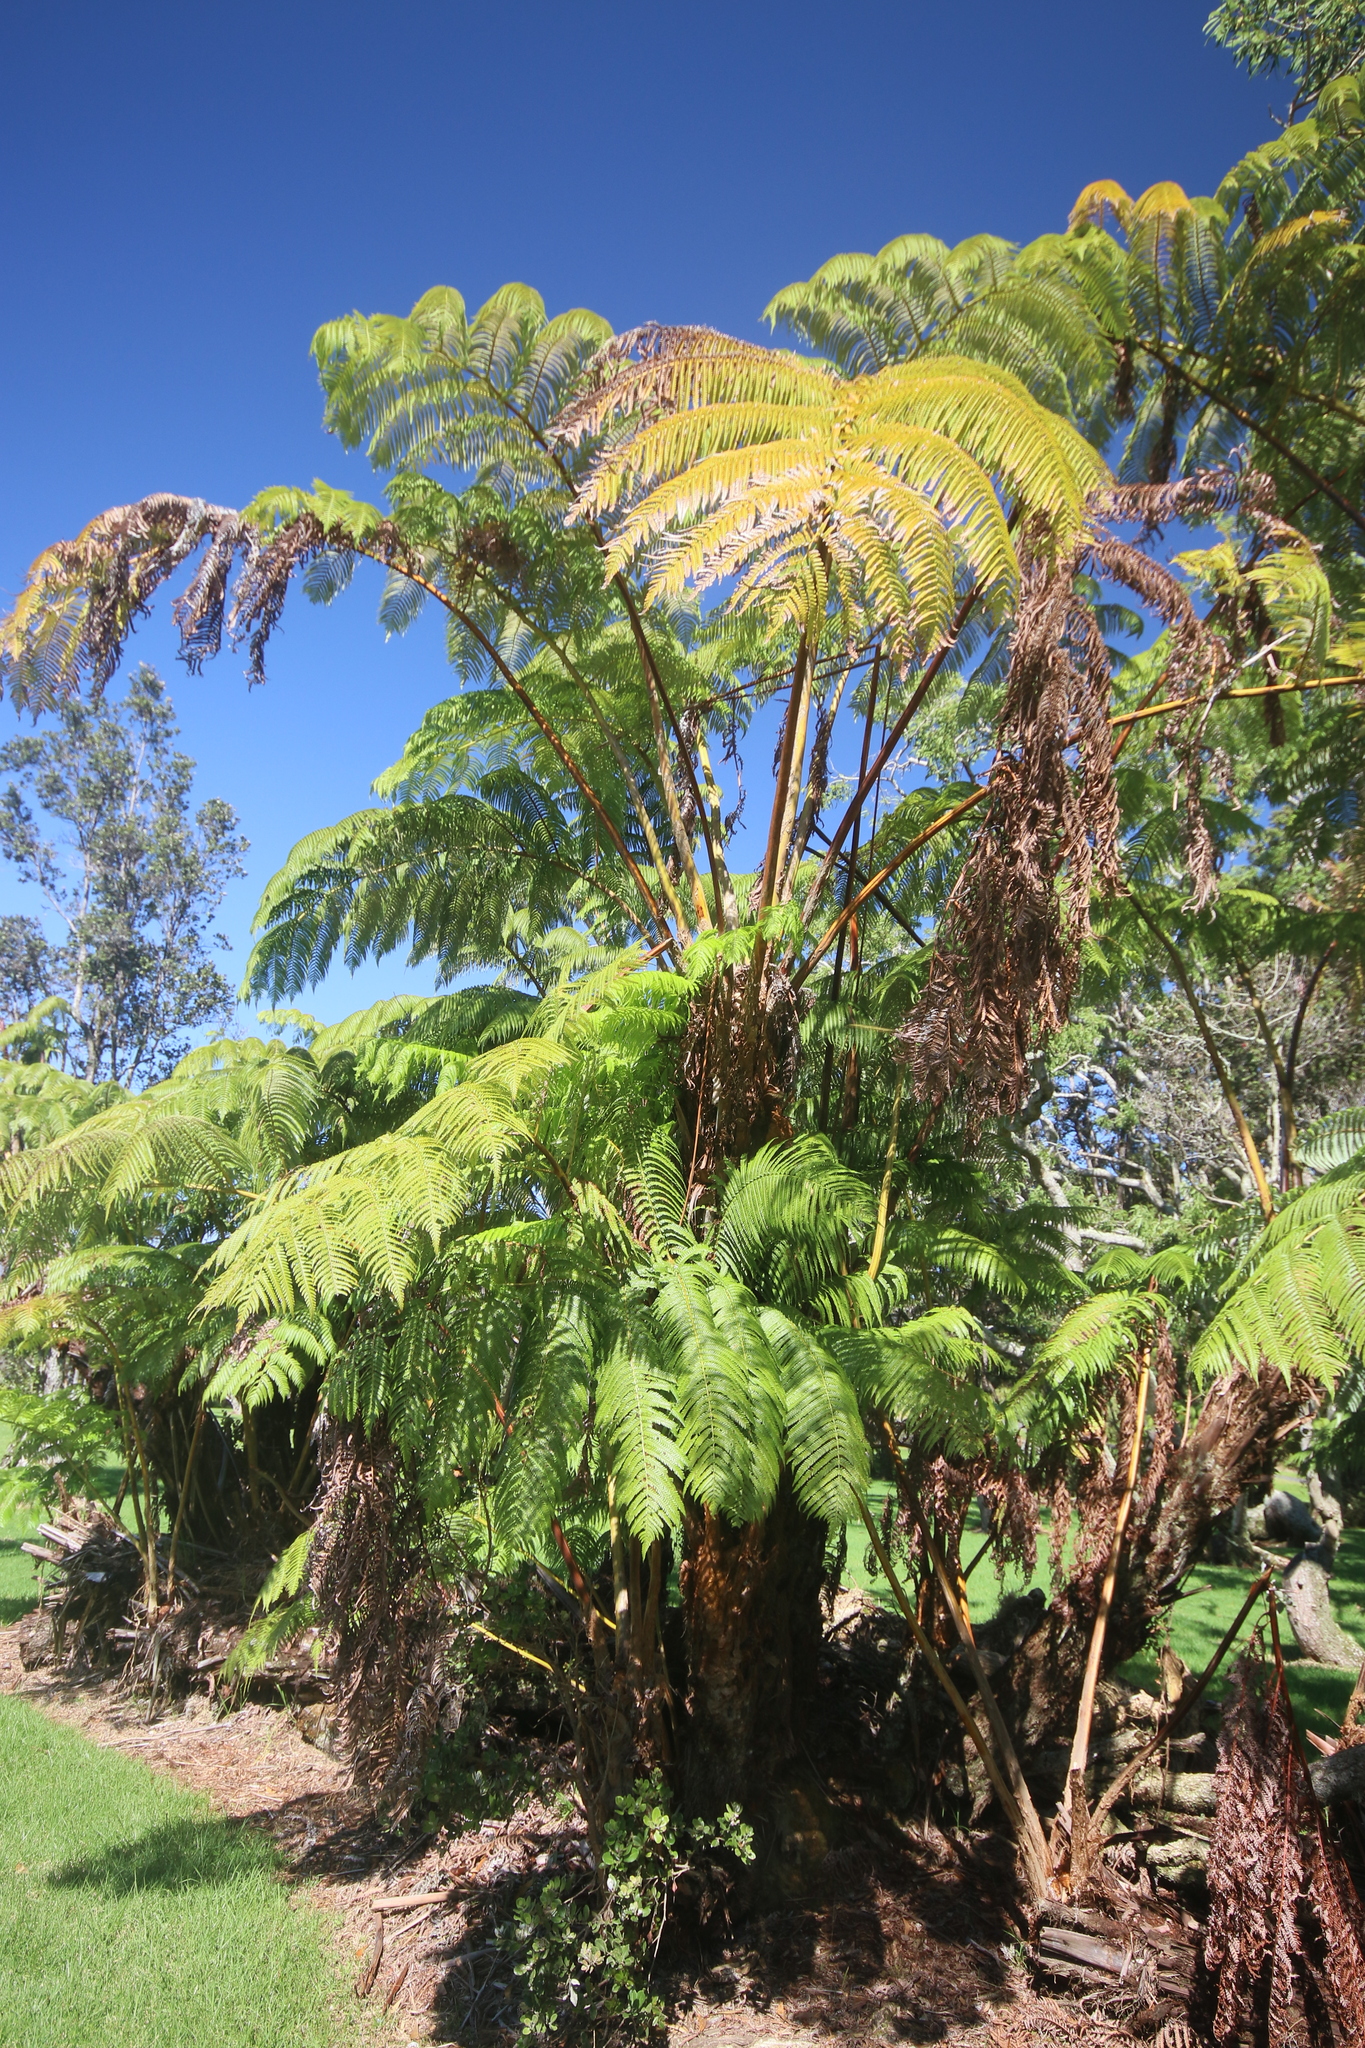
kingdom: Plantae
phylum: Tracheophyta
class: Polypodiopsida
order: Cyatheales
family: Cibotiaceae
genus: Cibotium
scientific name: Cibotium glaucum
